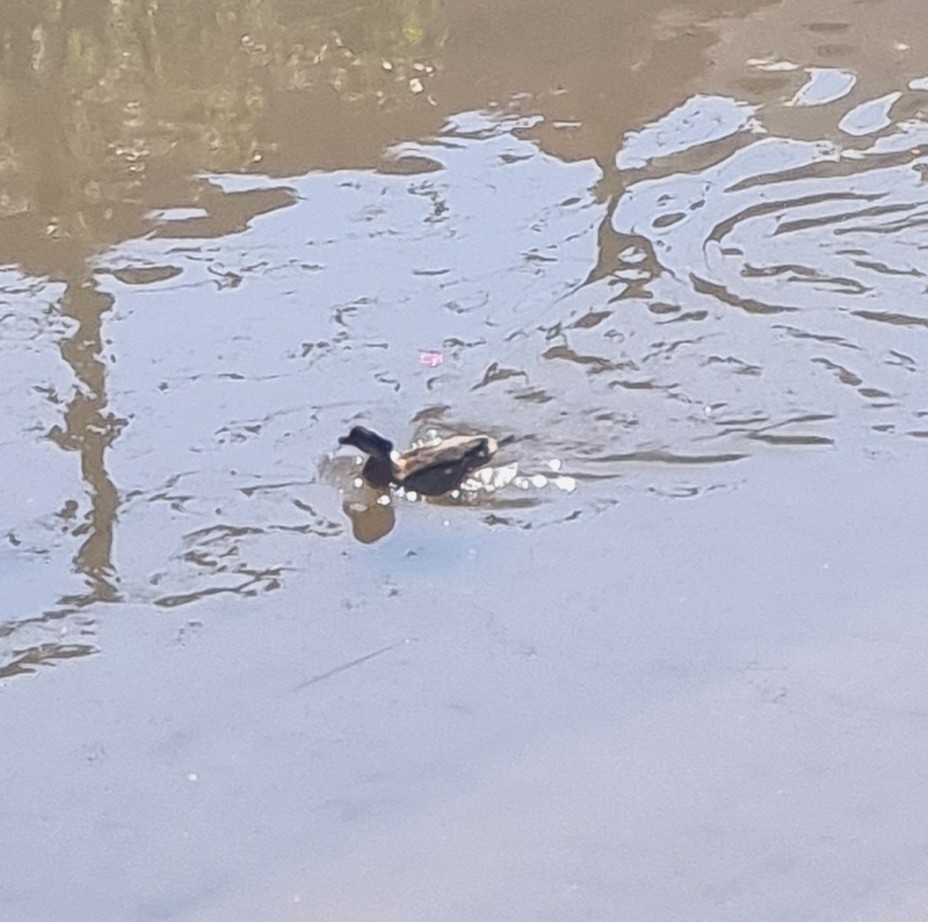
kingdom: Animalia
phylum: Chordata
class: Aves
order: Anseriformes
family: Anatidae
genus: Amazonetta
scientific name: Amazonetta brasiliensis
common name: Brazilian teal
